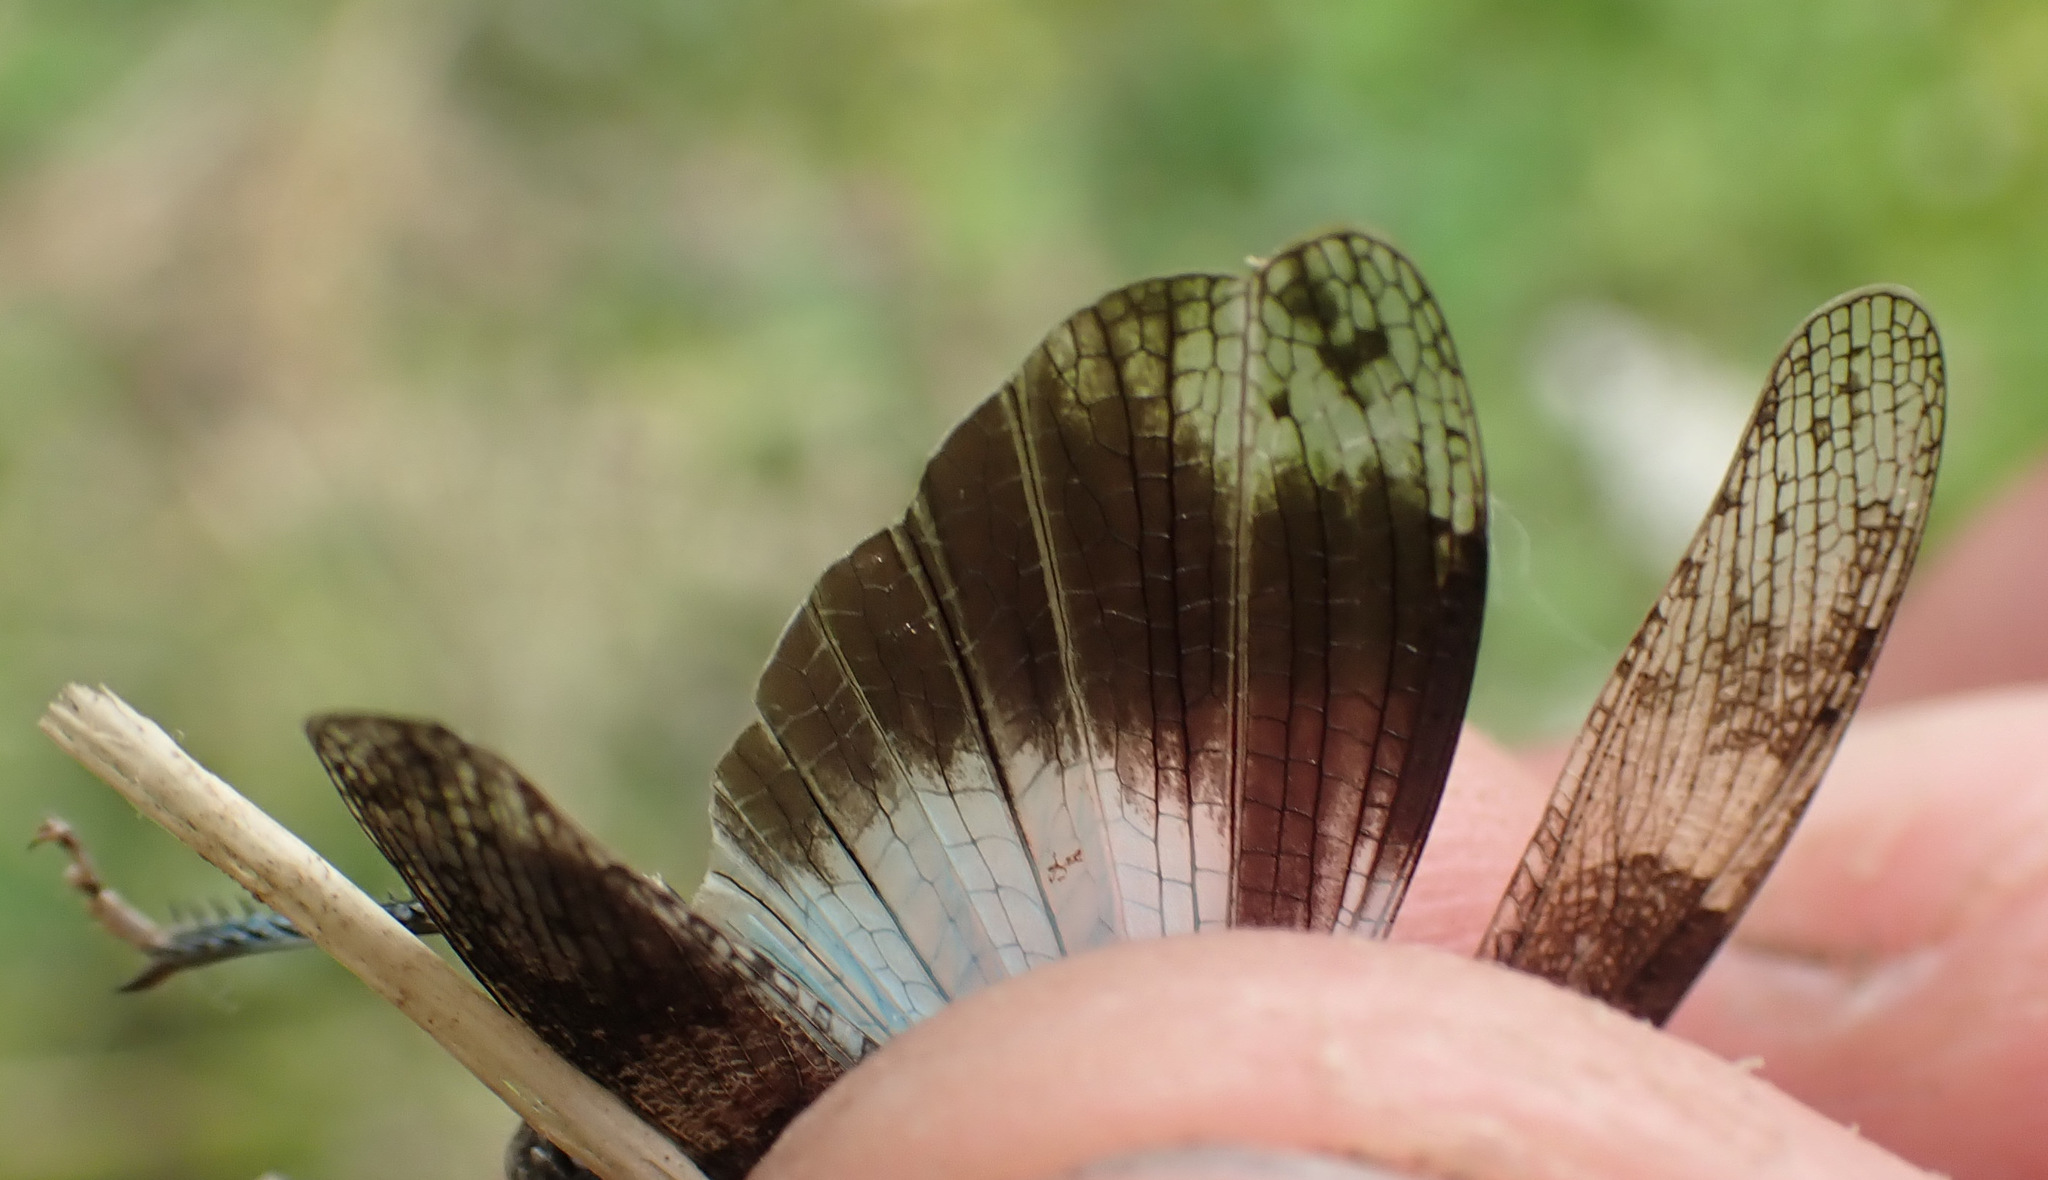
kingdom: Animalia
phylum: Arthropoda
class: Insecta
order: Orthoptera
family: Acrididae
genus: Oedipoda
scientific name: Oedipoda caerulescens
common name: Blue-winged grasshopper
